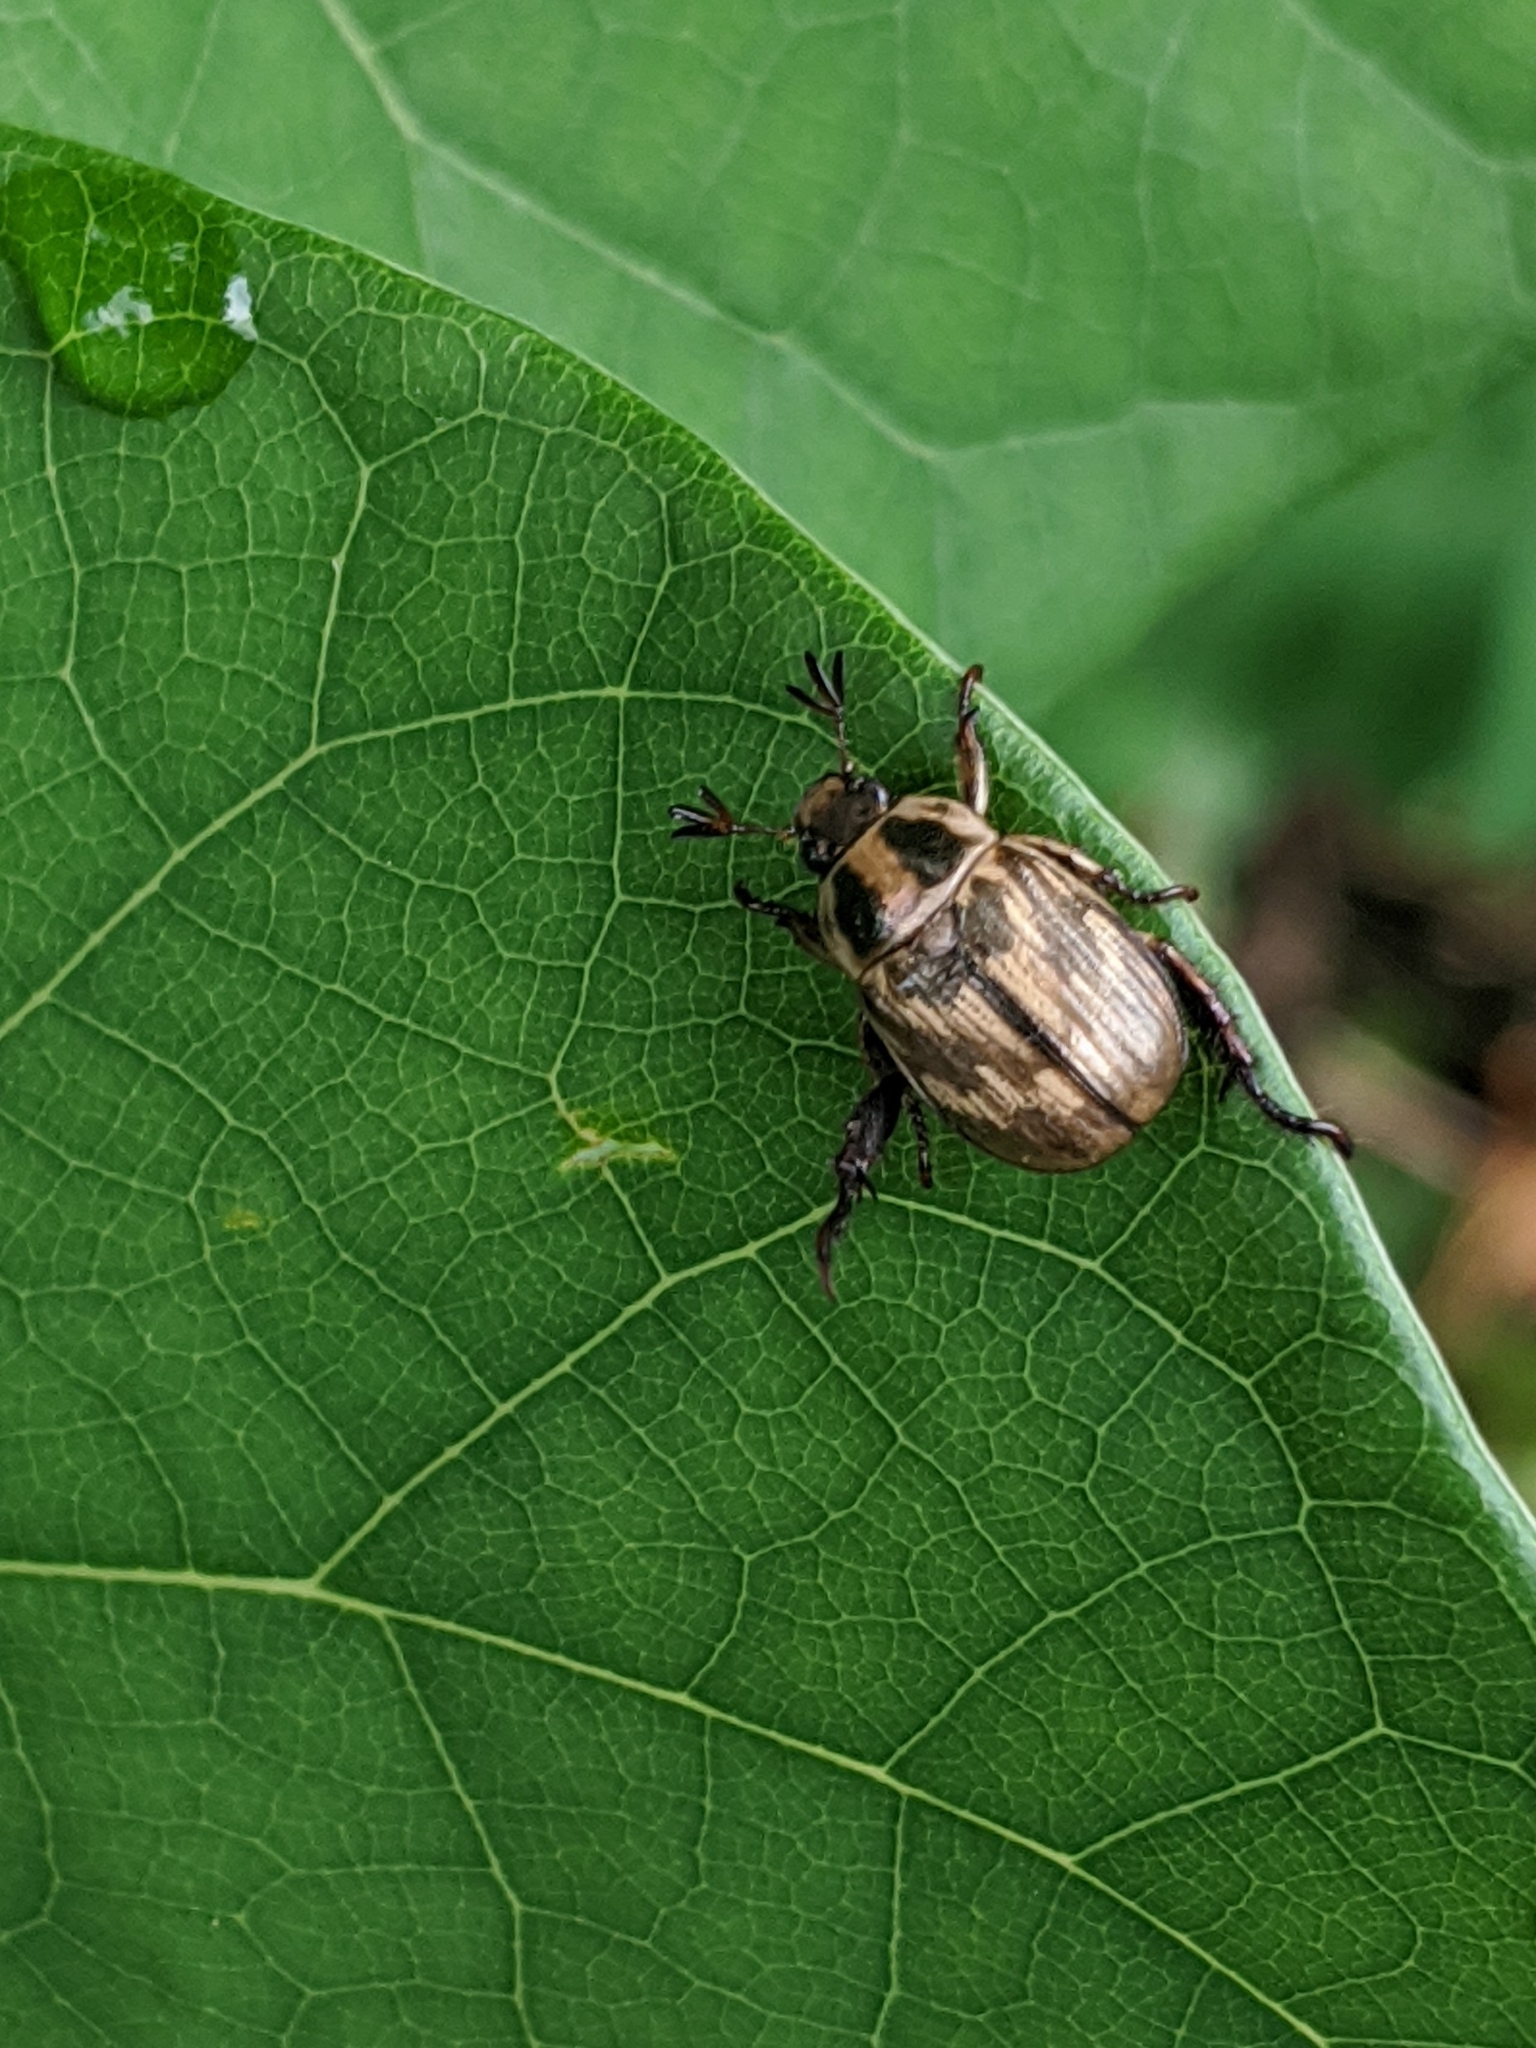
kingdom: Animalia
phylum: Arthropoda
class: Insecta
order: Coleoptera
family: Scarabaeidae
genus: Exomala
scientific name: Exomala orientalis
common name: Oriental beetle
